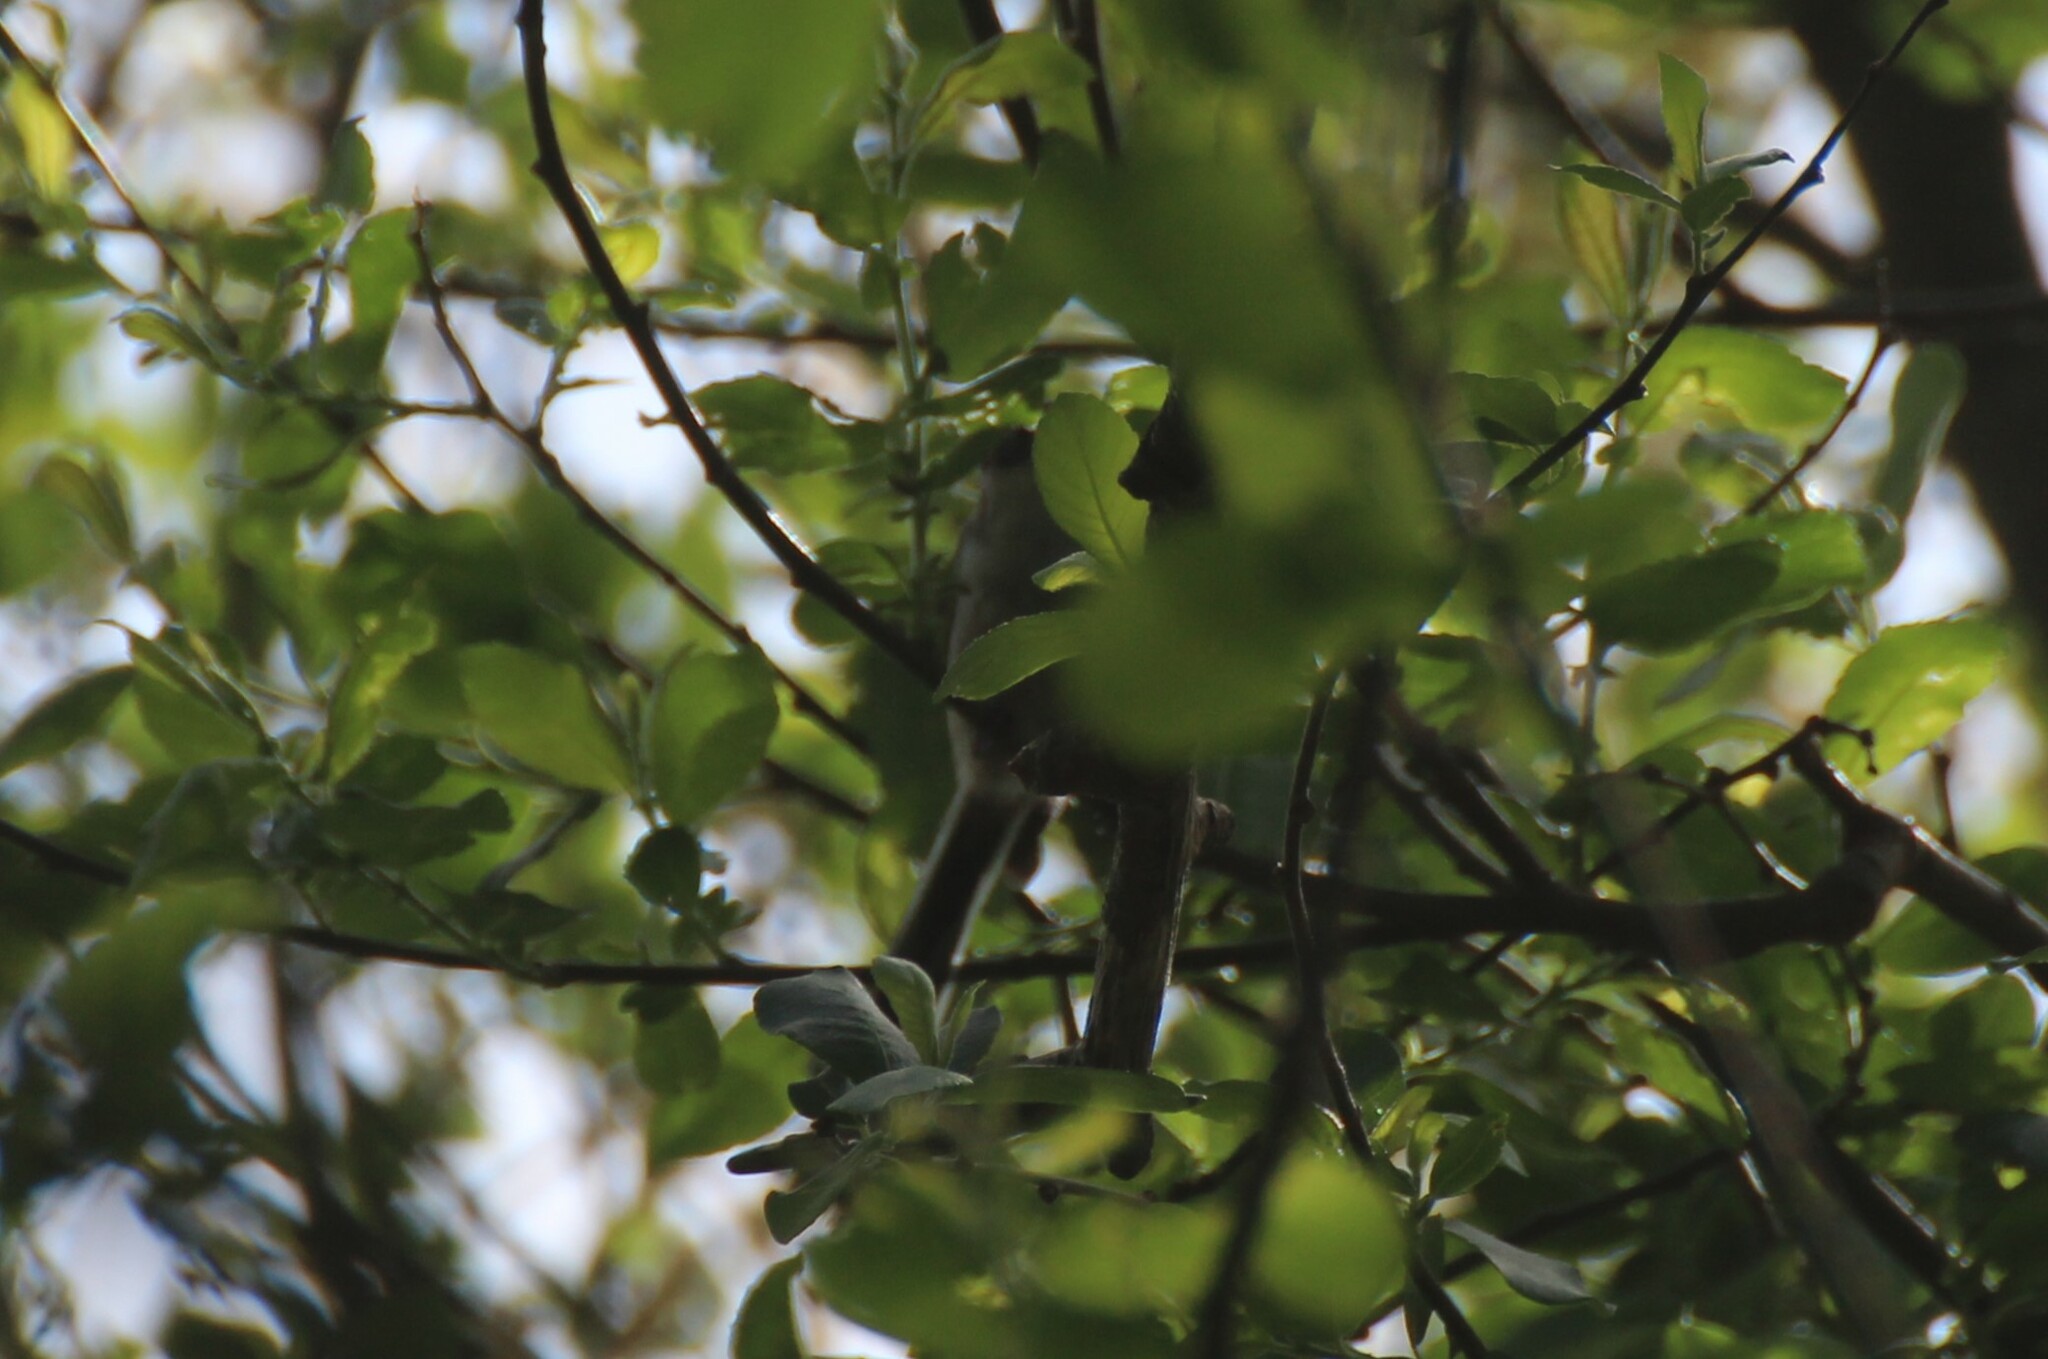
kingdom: Animalia
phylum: Chordata
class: Aves
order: Passeriformes
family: Aegithalidae
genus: Aegithalos
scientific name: Aegithalos caudatus
